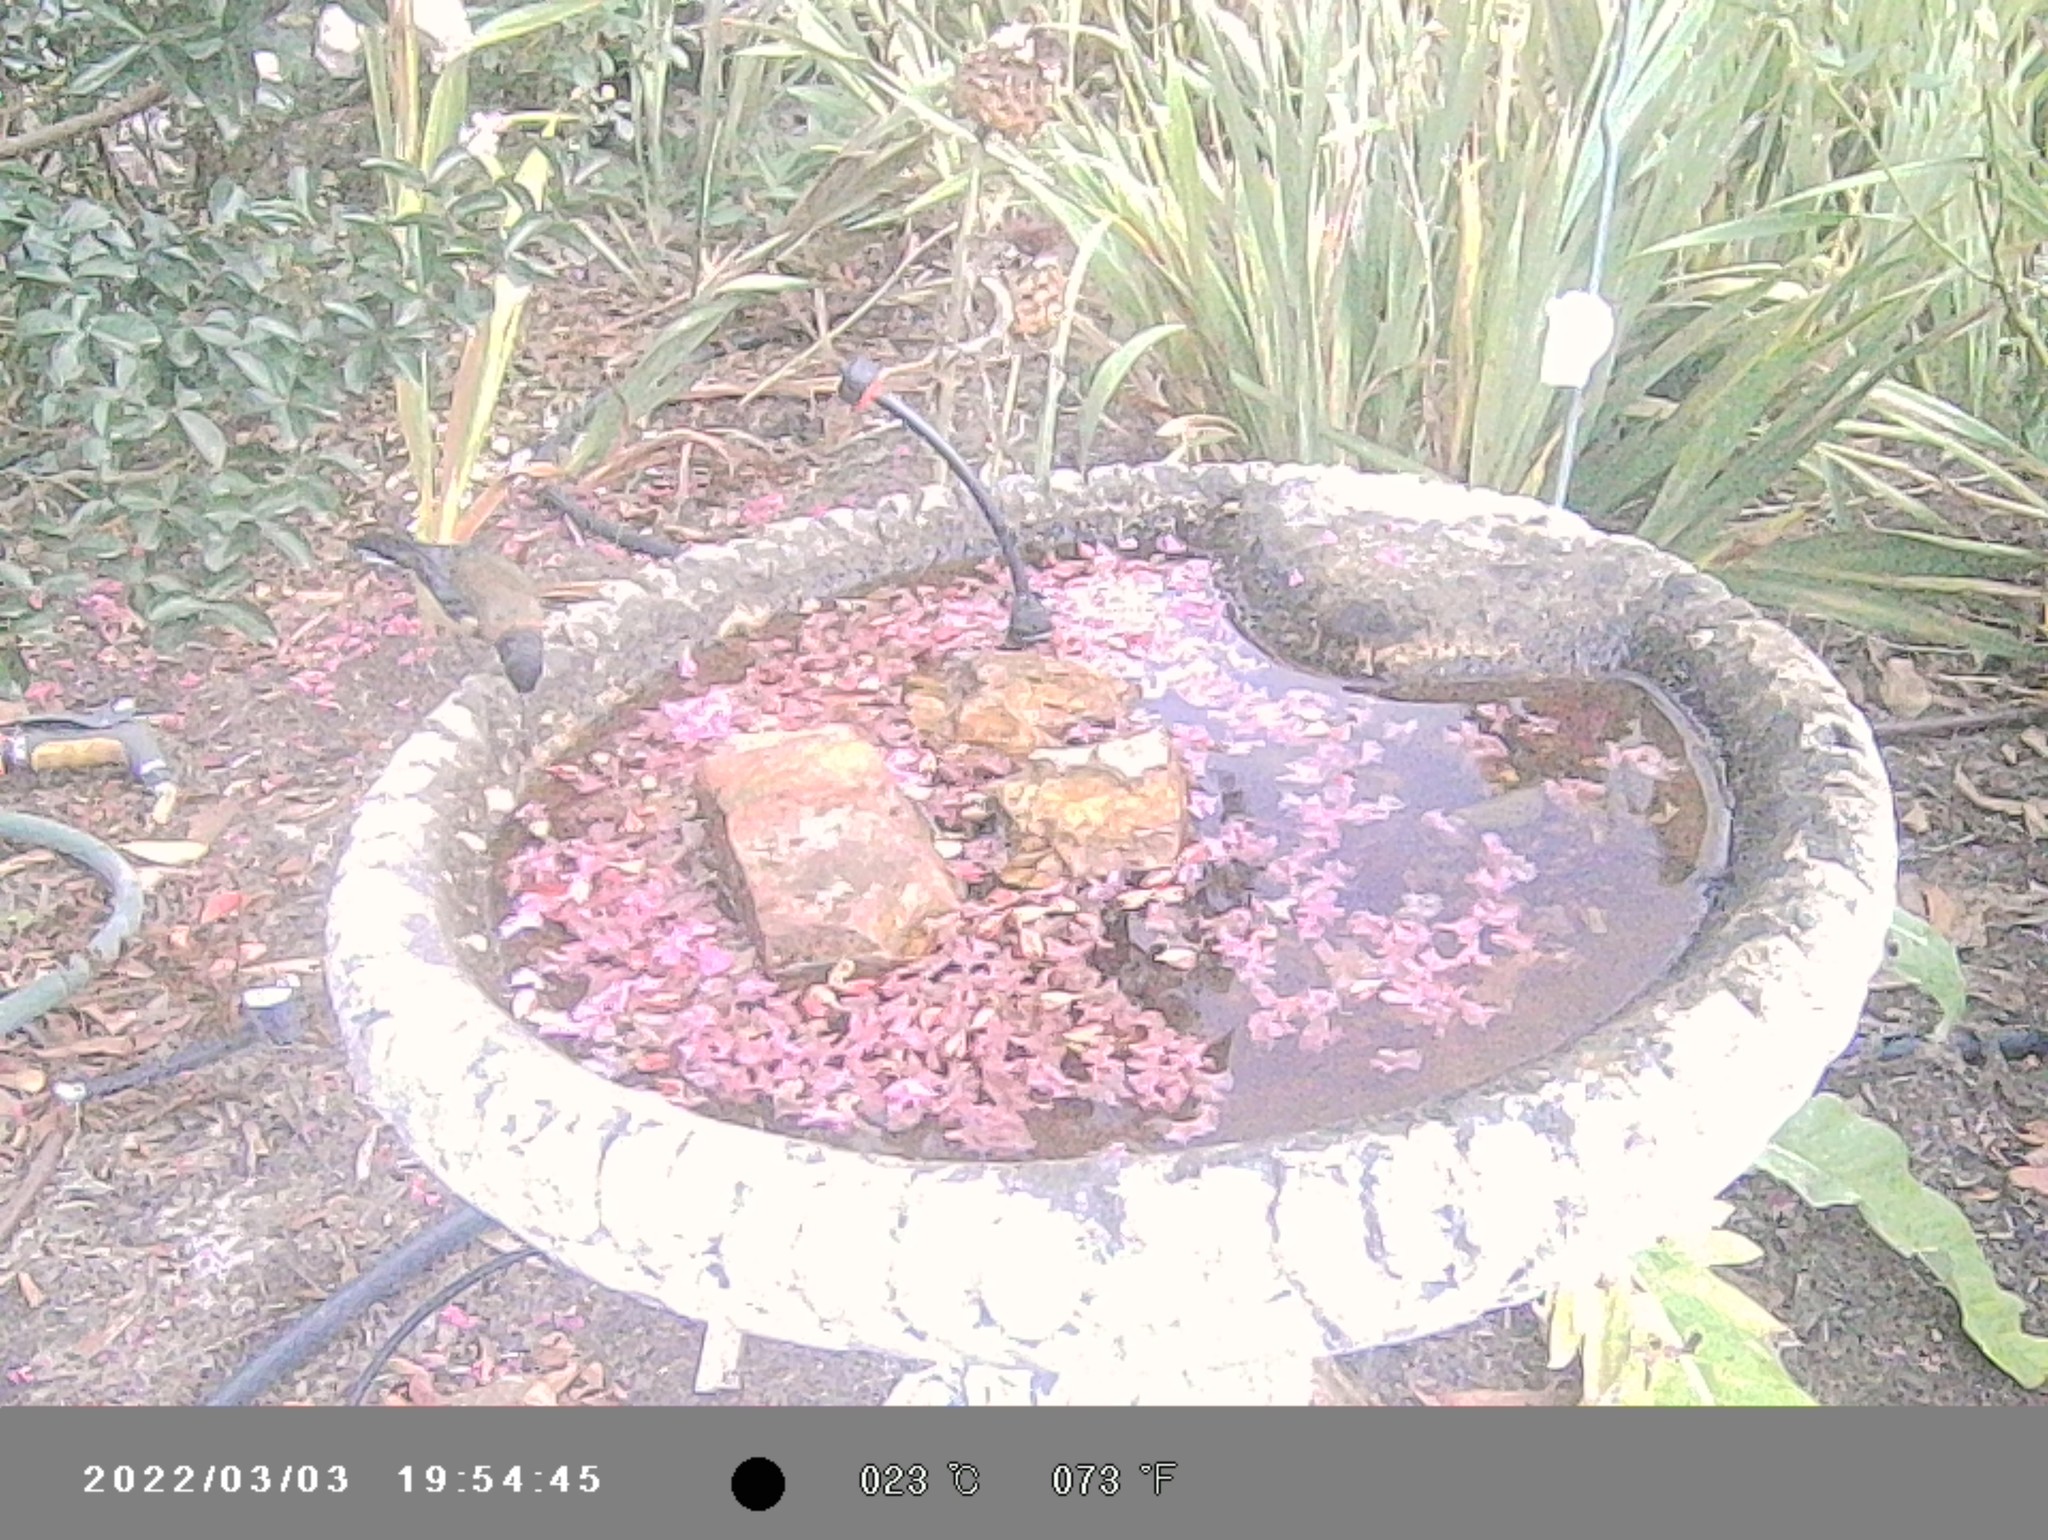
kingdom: Animalia
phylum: Chordata
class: Aves
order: Passeriformes
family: Meliphagidae
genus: Acanthorhynchus
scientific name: Acanthorhynchus tenuirostris
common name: Eastern spinebill
